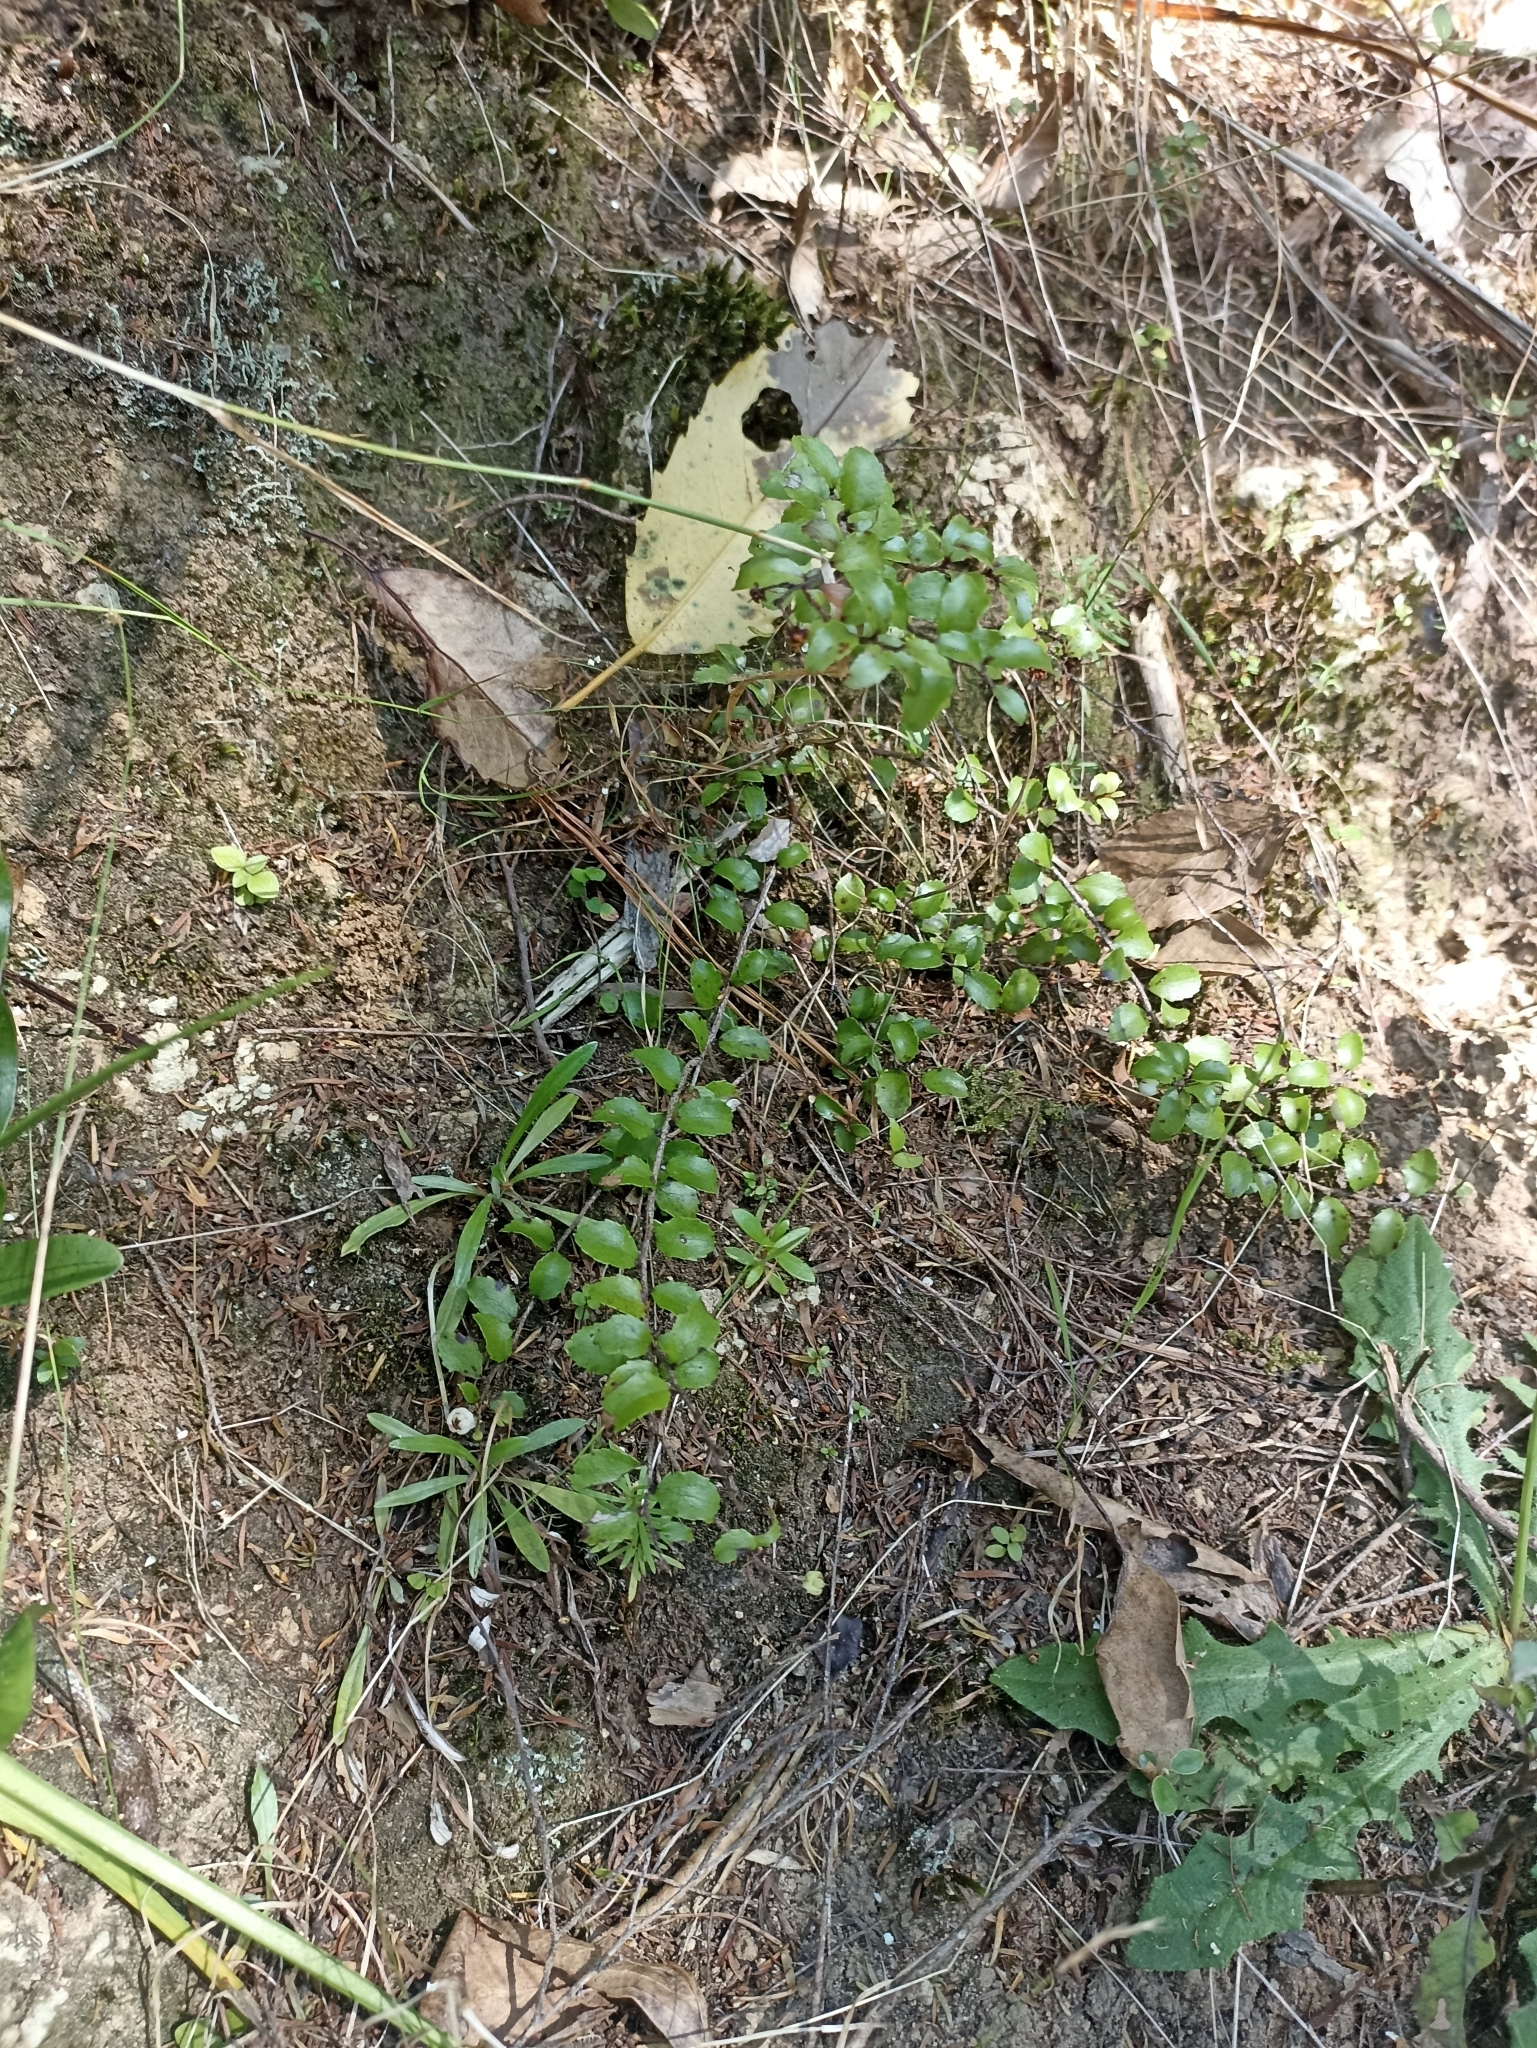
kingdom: Plantae
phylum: Tracheophyta
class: Magnoliopsida
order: Ericales
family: Ericaceae
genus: Gaultheria
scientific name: Gaultheria antipoda
